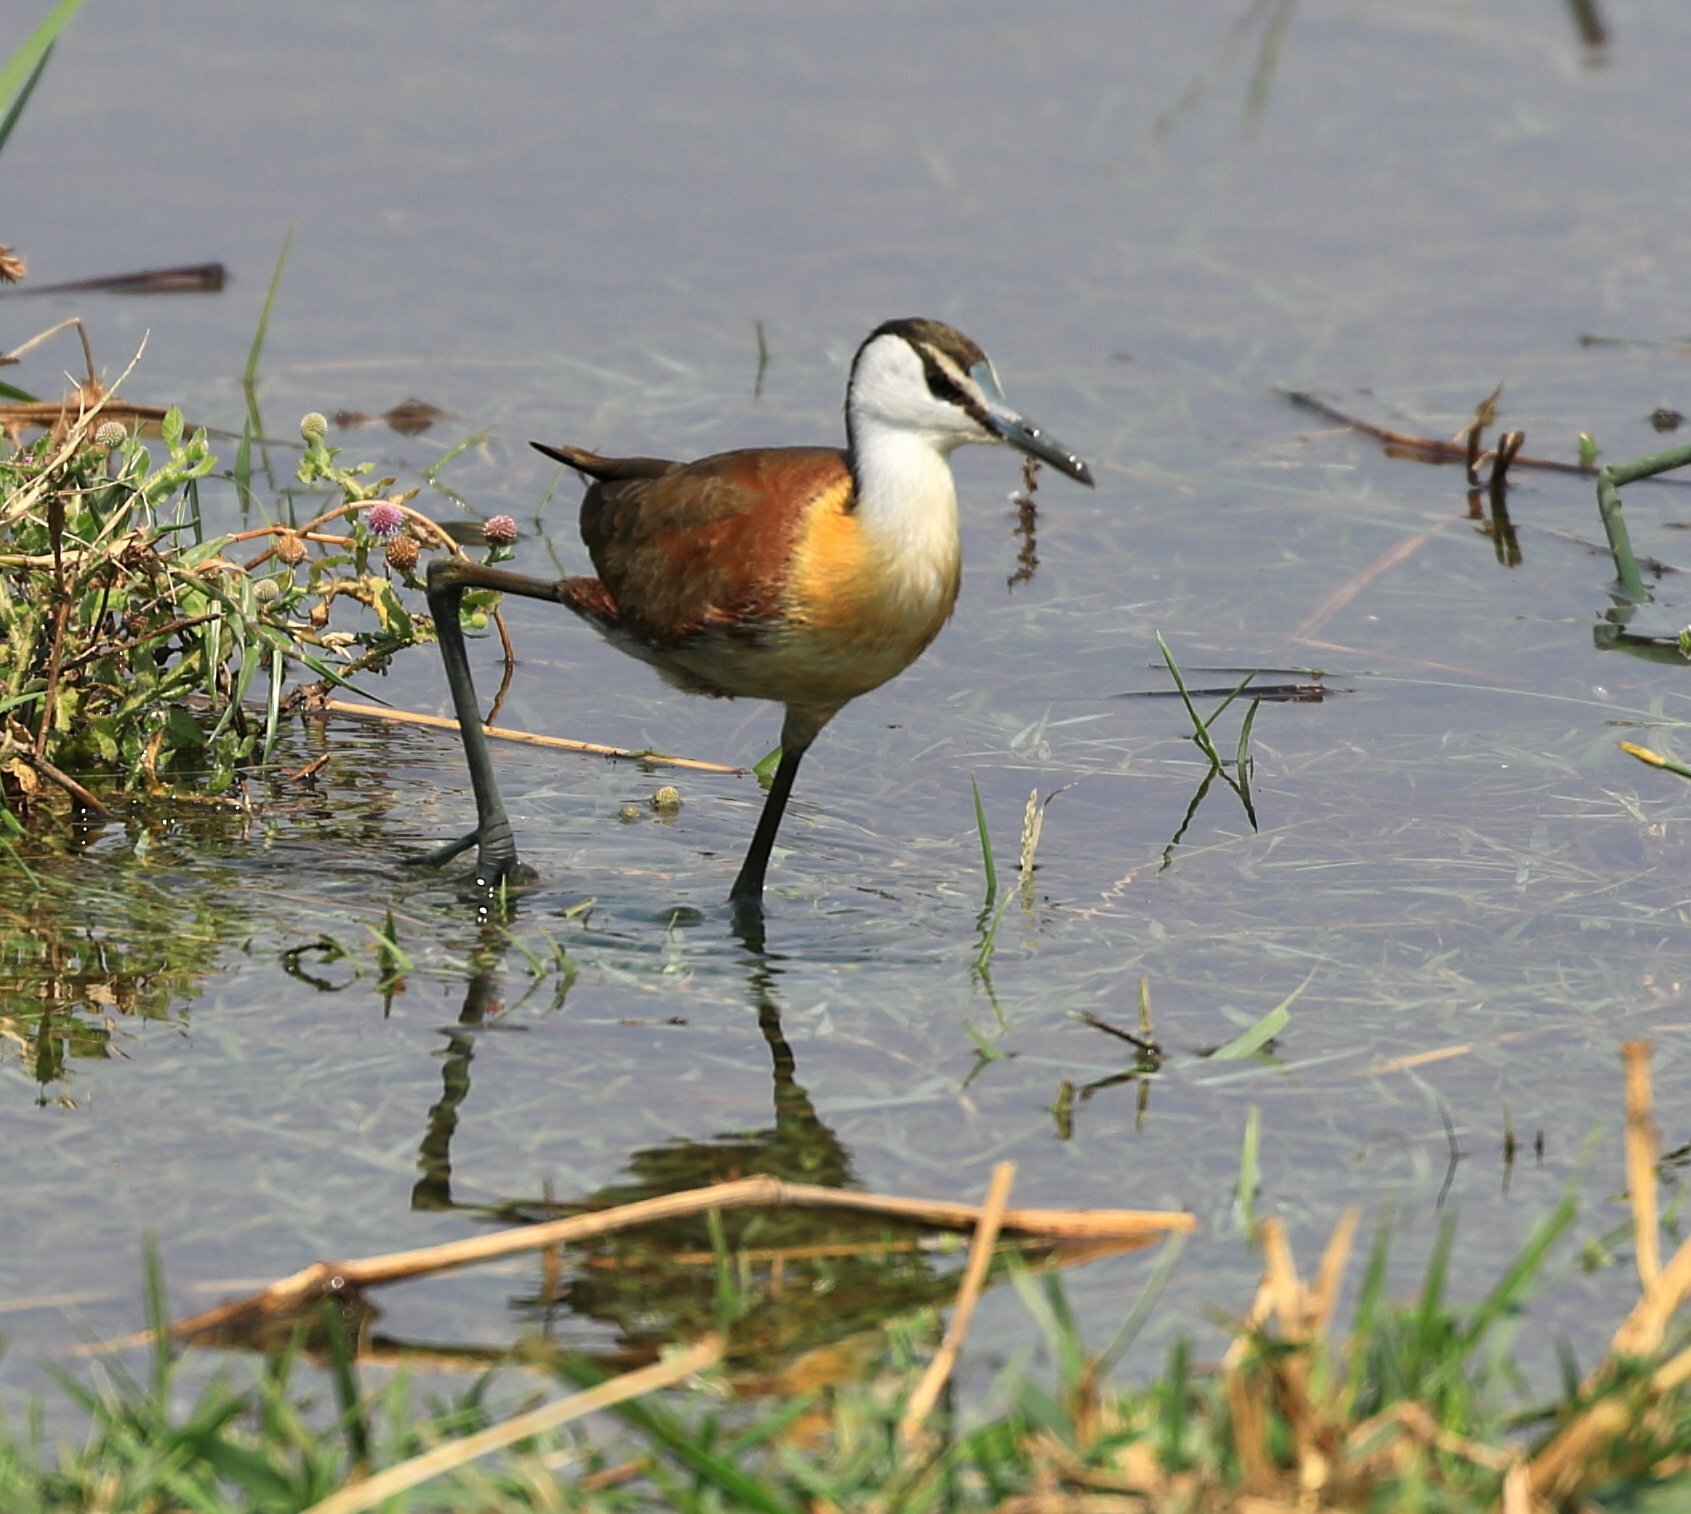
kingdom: Animalia
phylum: Chordata
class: Aves
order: Charadriiformes
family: Jacanidae
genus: Actophilornis
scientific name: Actophilornis africanus
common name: African jacana
